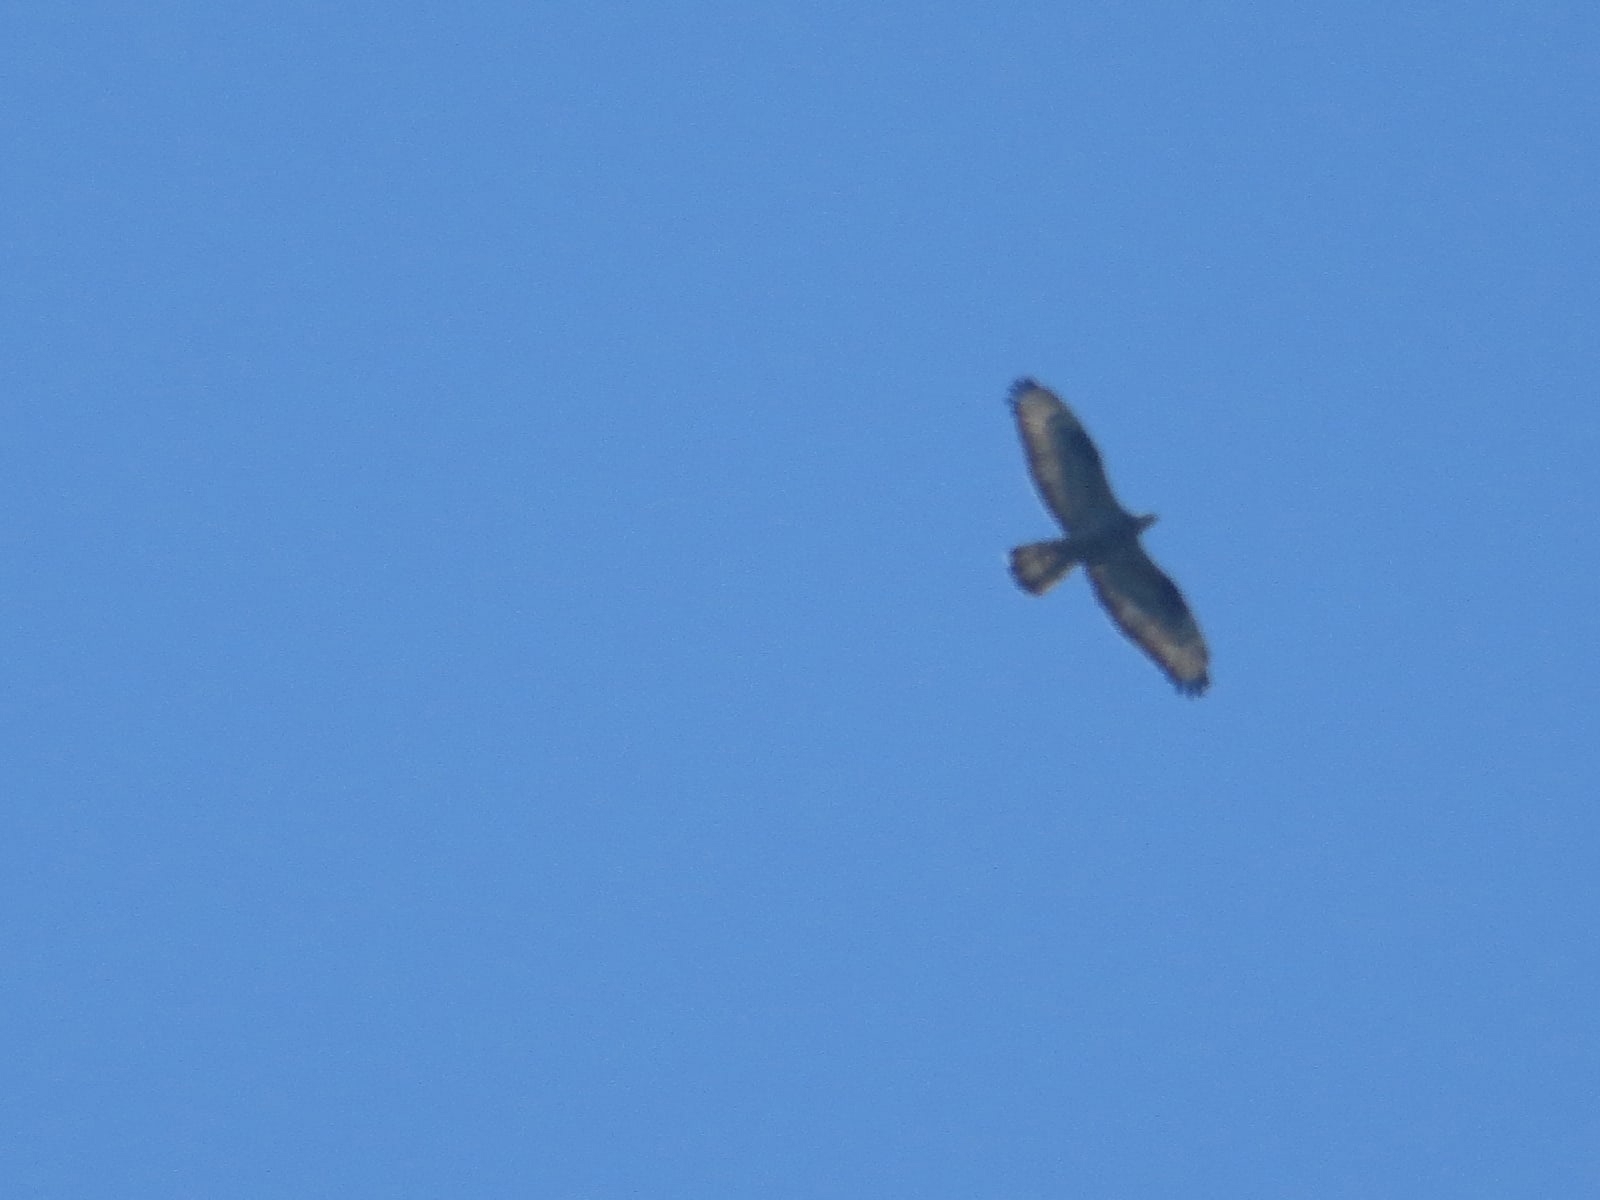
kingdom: Animalia
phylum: Chordata
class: Aves
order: Accipitriformes
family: Accipitridae
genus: Pernis
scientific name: Pernis apivorus
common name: European honey buzzard
